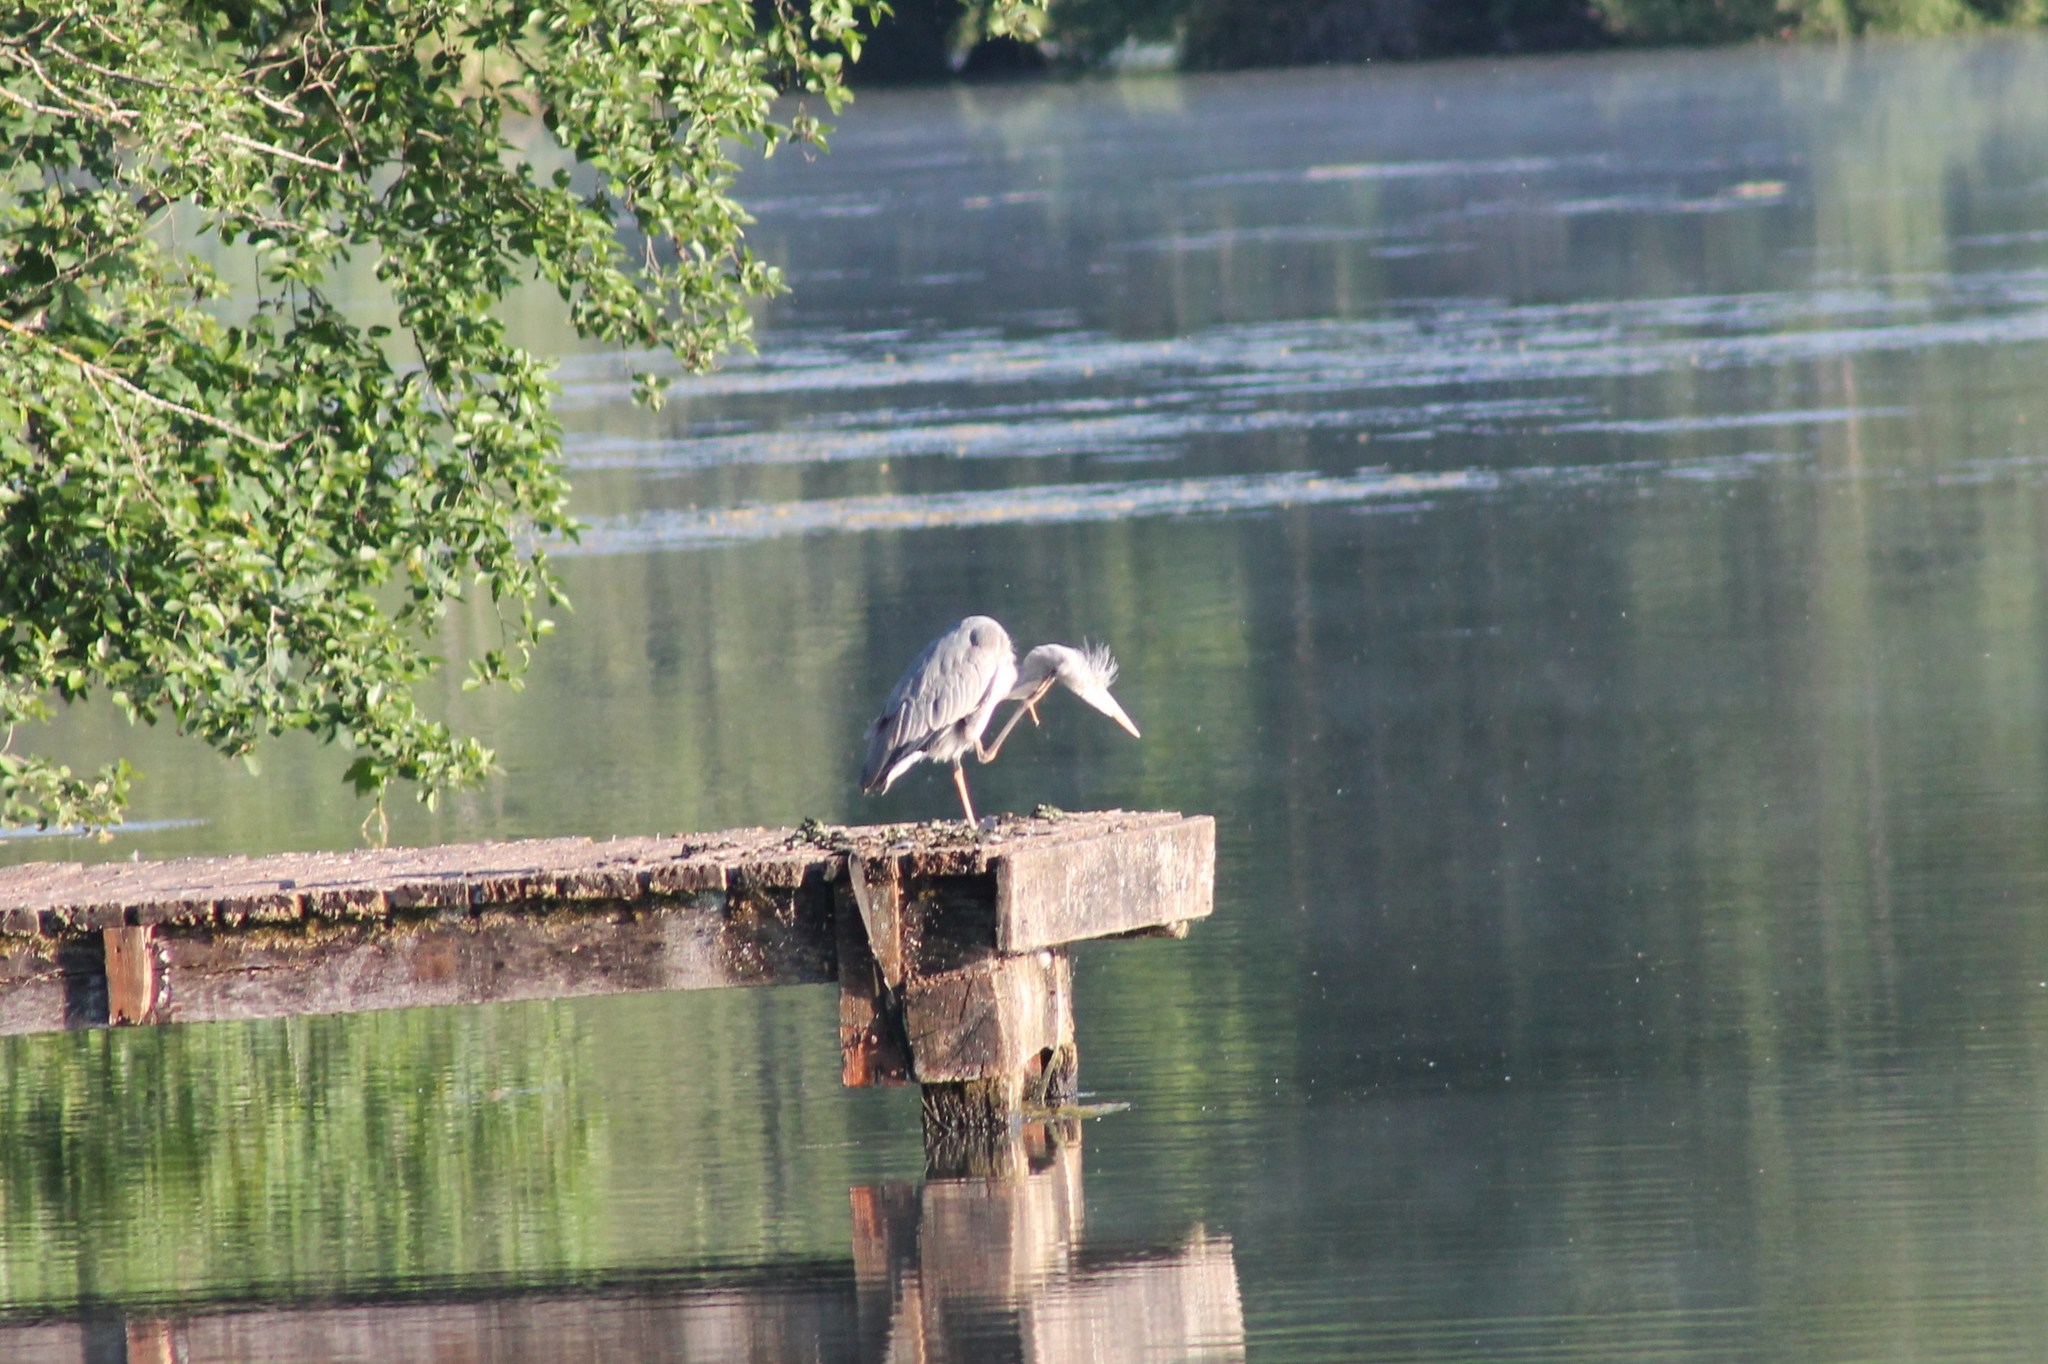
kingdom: Animalia
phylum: Chordata
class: Aves
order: Pelecaniformes
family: Ardeidae
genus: Ardea
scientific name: Ardea cinerea
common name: Grey heron
